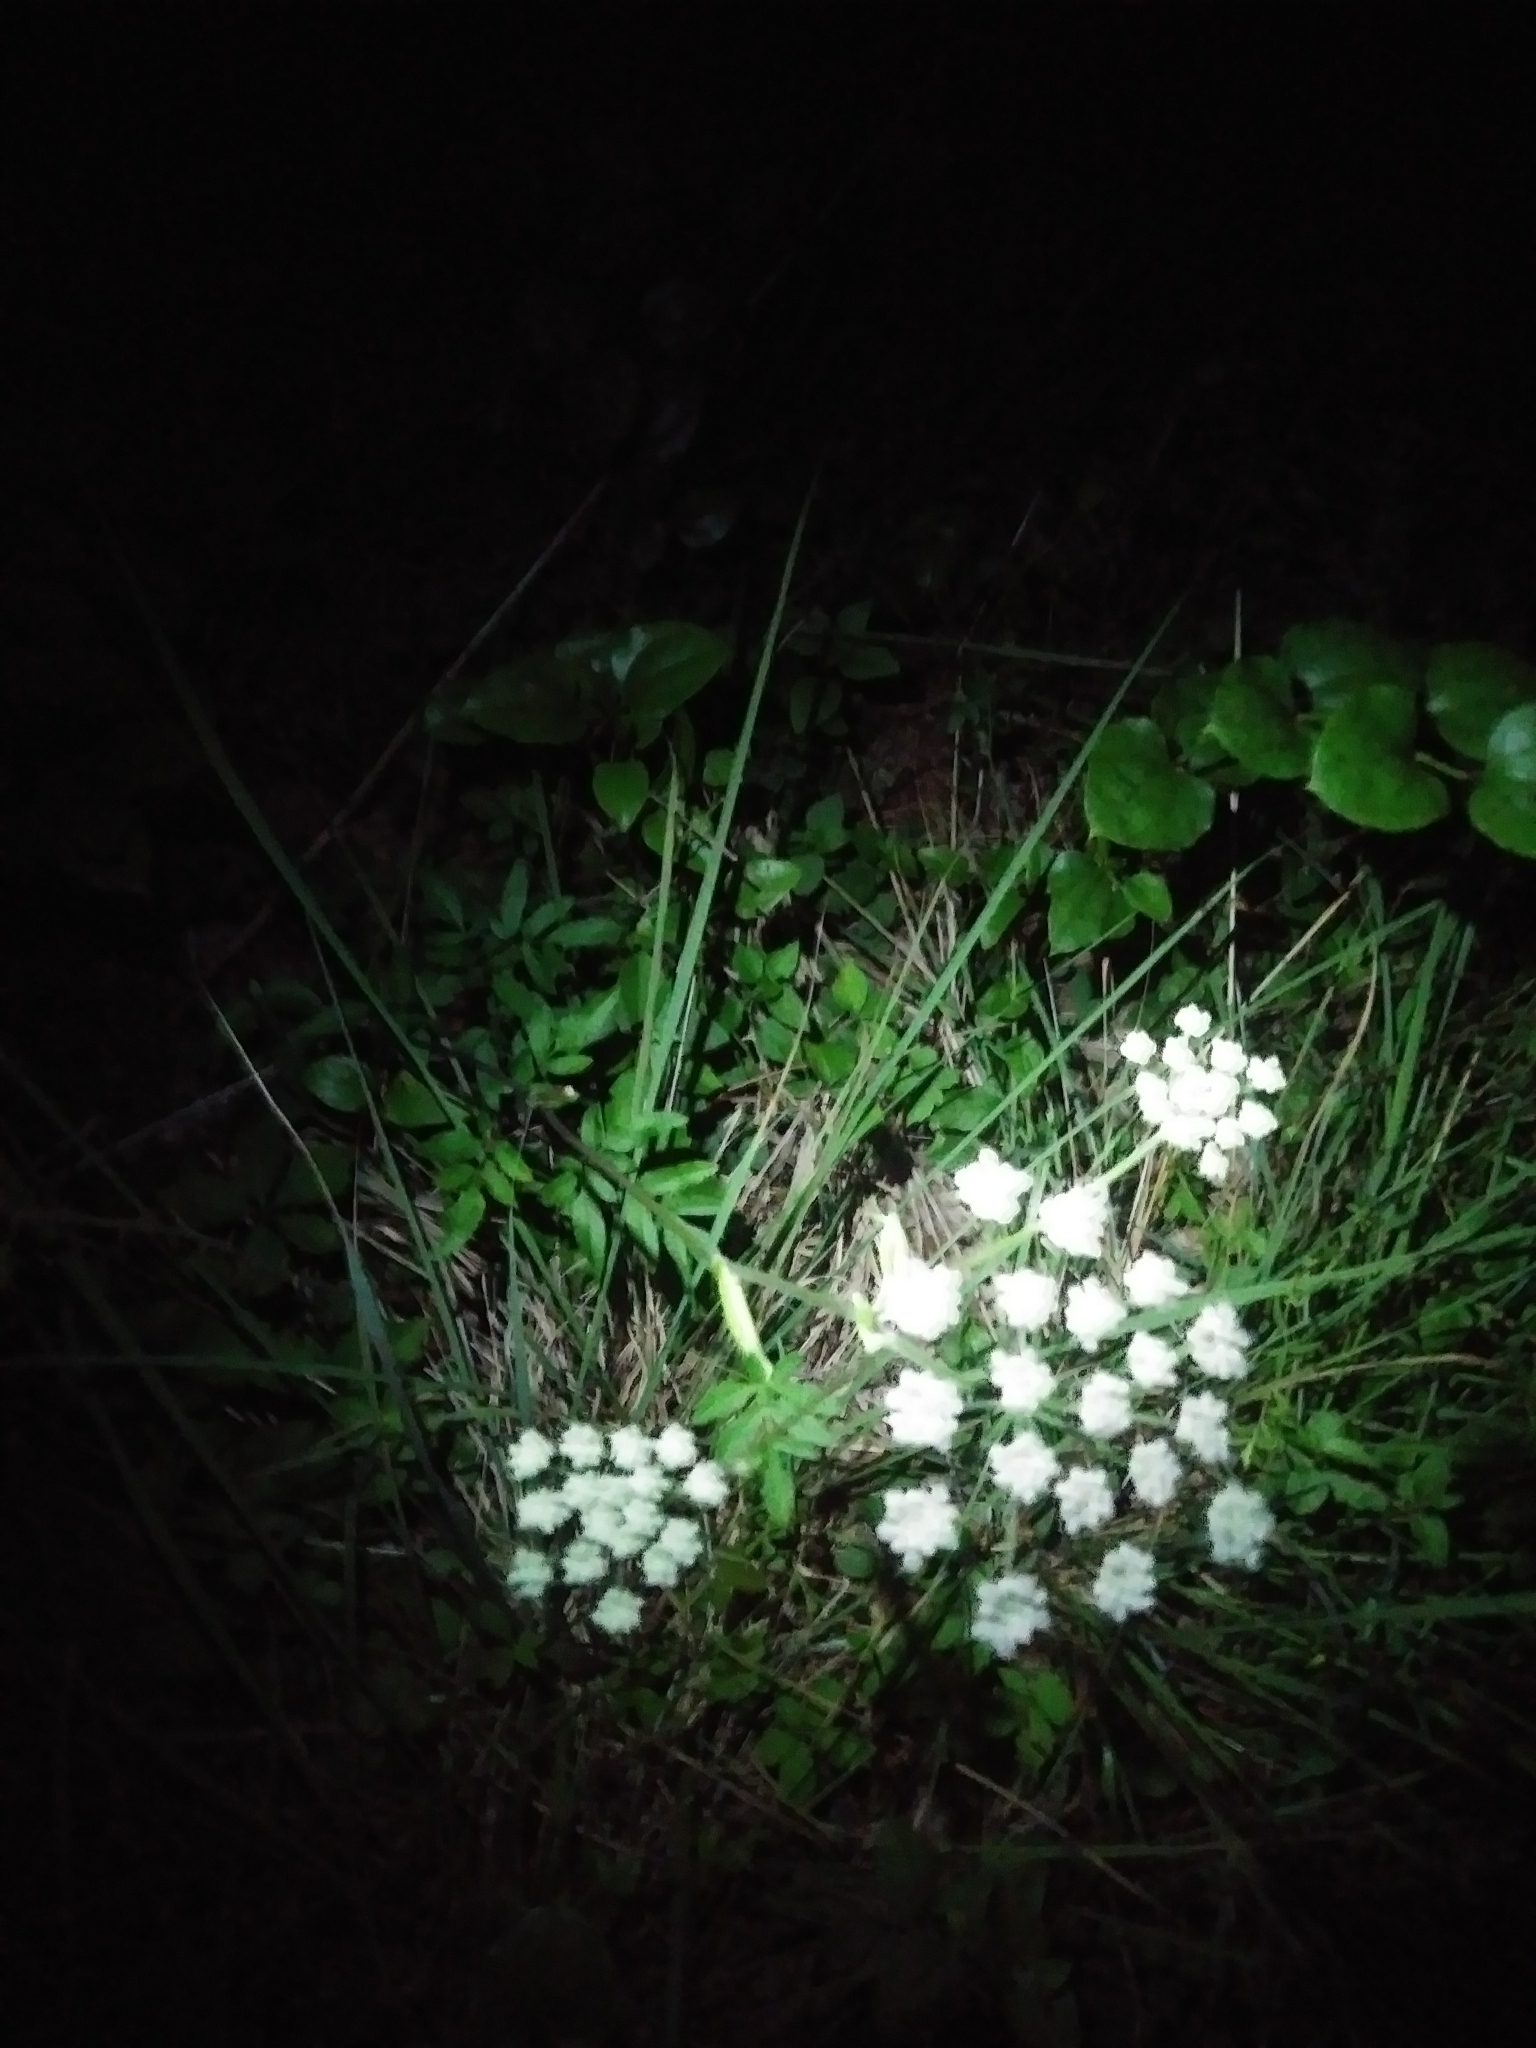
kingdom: Plantae
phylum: Tracheophyta
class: Magnoliopsida
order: Apiales
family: Apiaceae
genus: Angelica
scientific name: Angelica venenosa
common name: Hairy angelica
